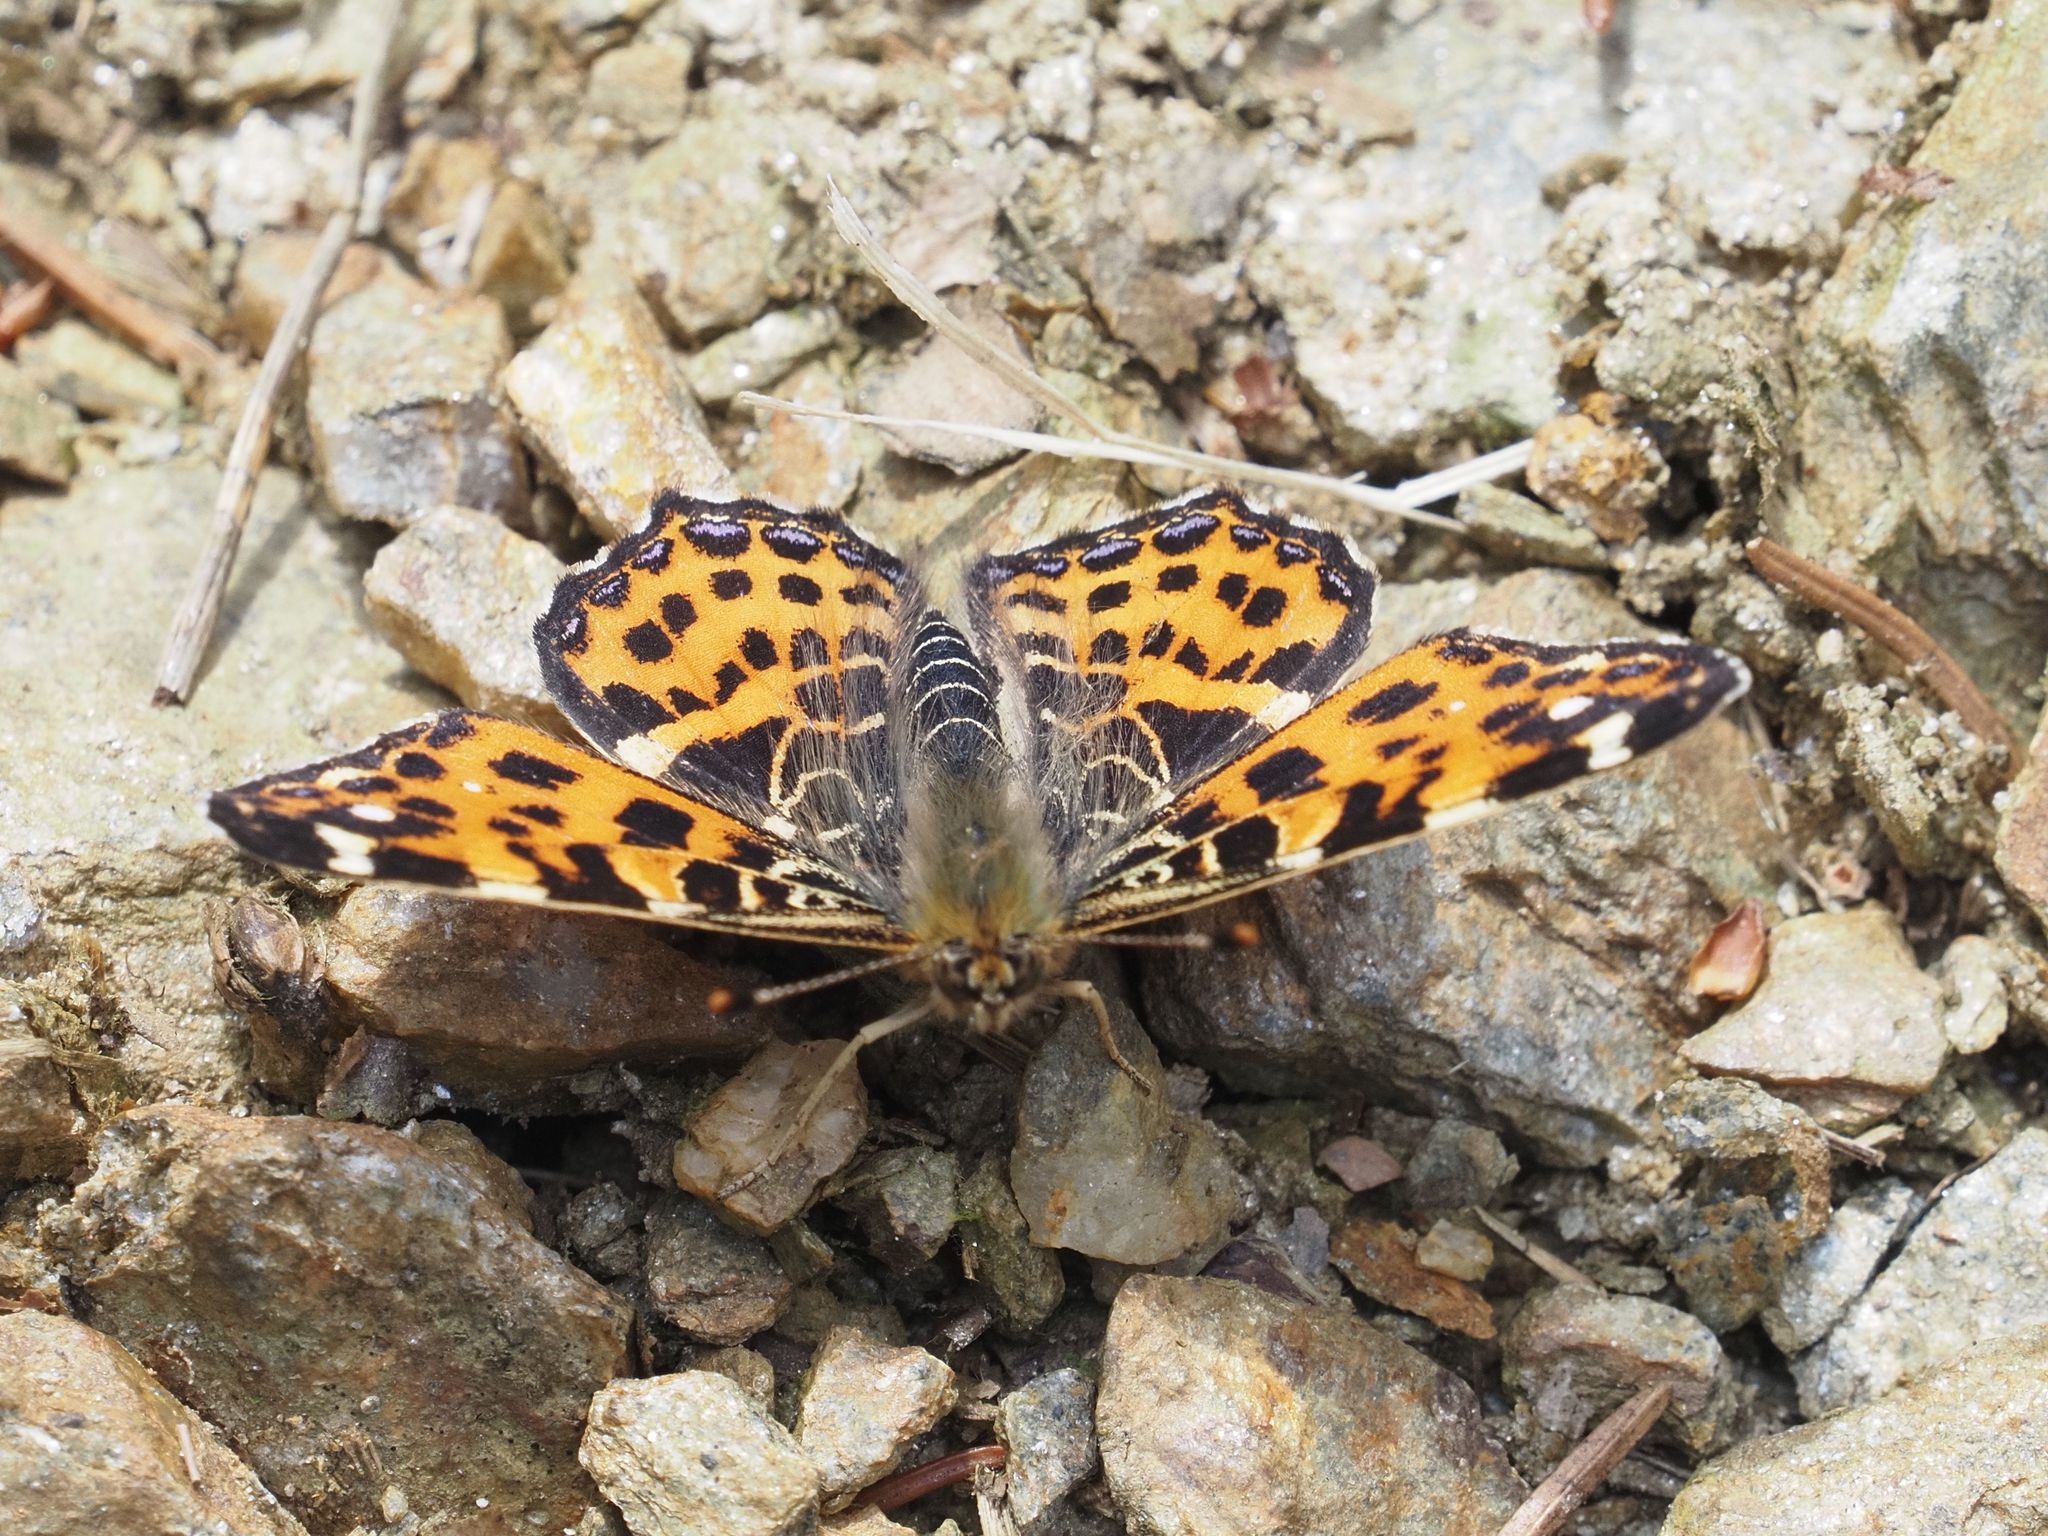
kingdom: Animalia
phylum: Arthropoda
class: Insecta
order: Lepidoptera
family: Nymphalidae
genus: Araschnia
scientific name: Araschnia levana
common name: Map butterfly
